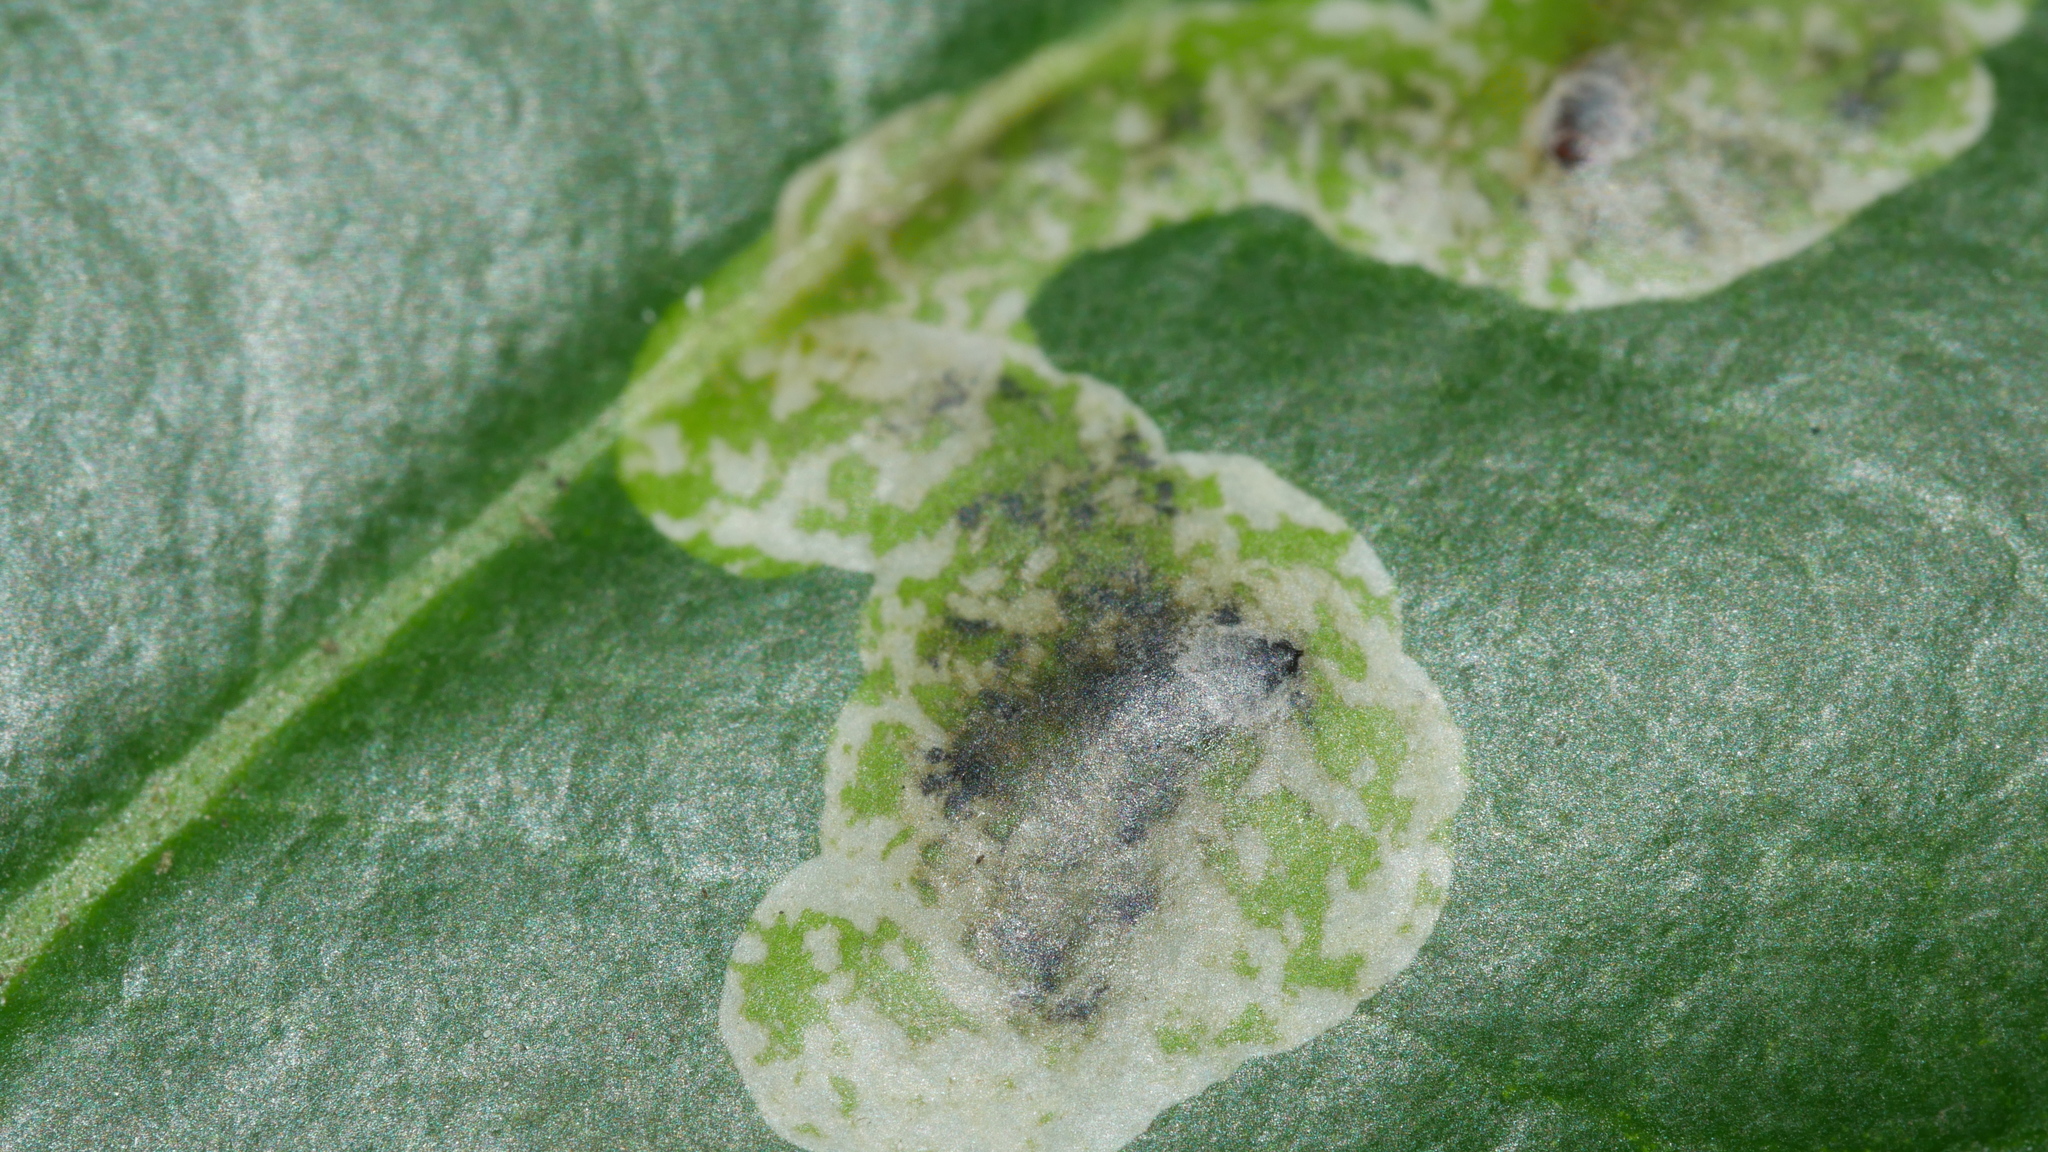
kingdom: Animalia
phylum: Arthropoda
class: Insecta
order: Diptera
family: Agromyzidae
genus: Phytomyza
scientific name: Phytomyza ilicicola
